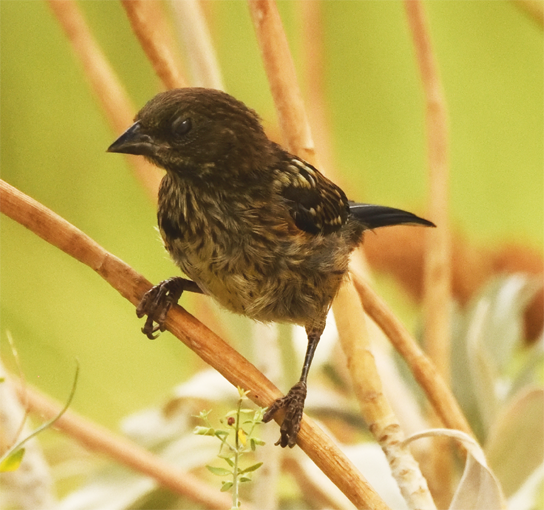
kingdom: Animalia
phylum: Chordata
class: Aves
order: Passeriformes
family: Passerellidae
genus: Pipilo
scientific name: Pipilo maculatus
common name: Spotted towhee
